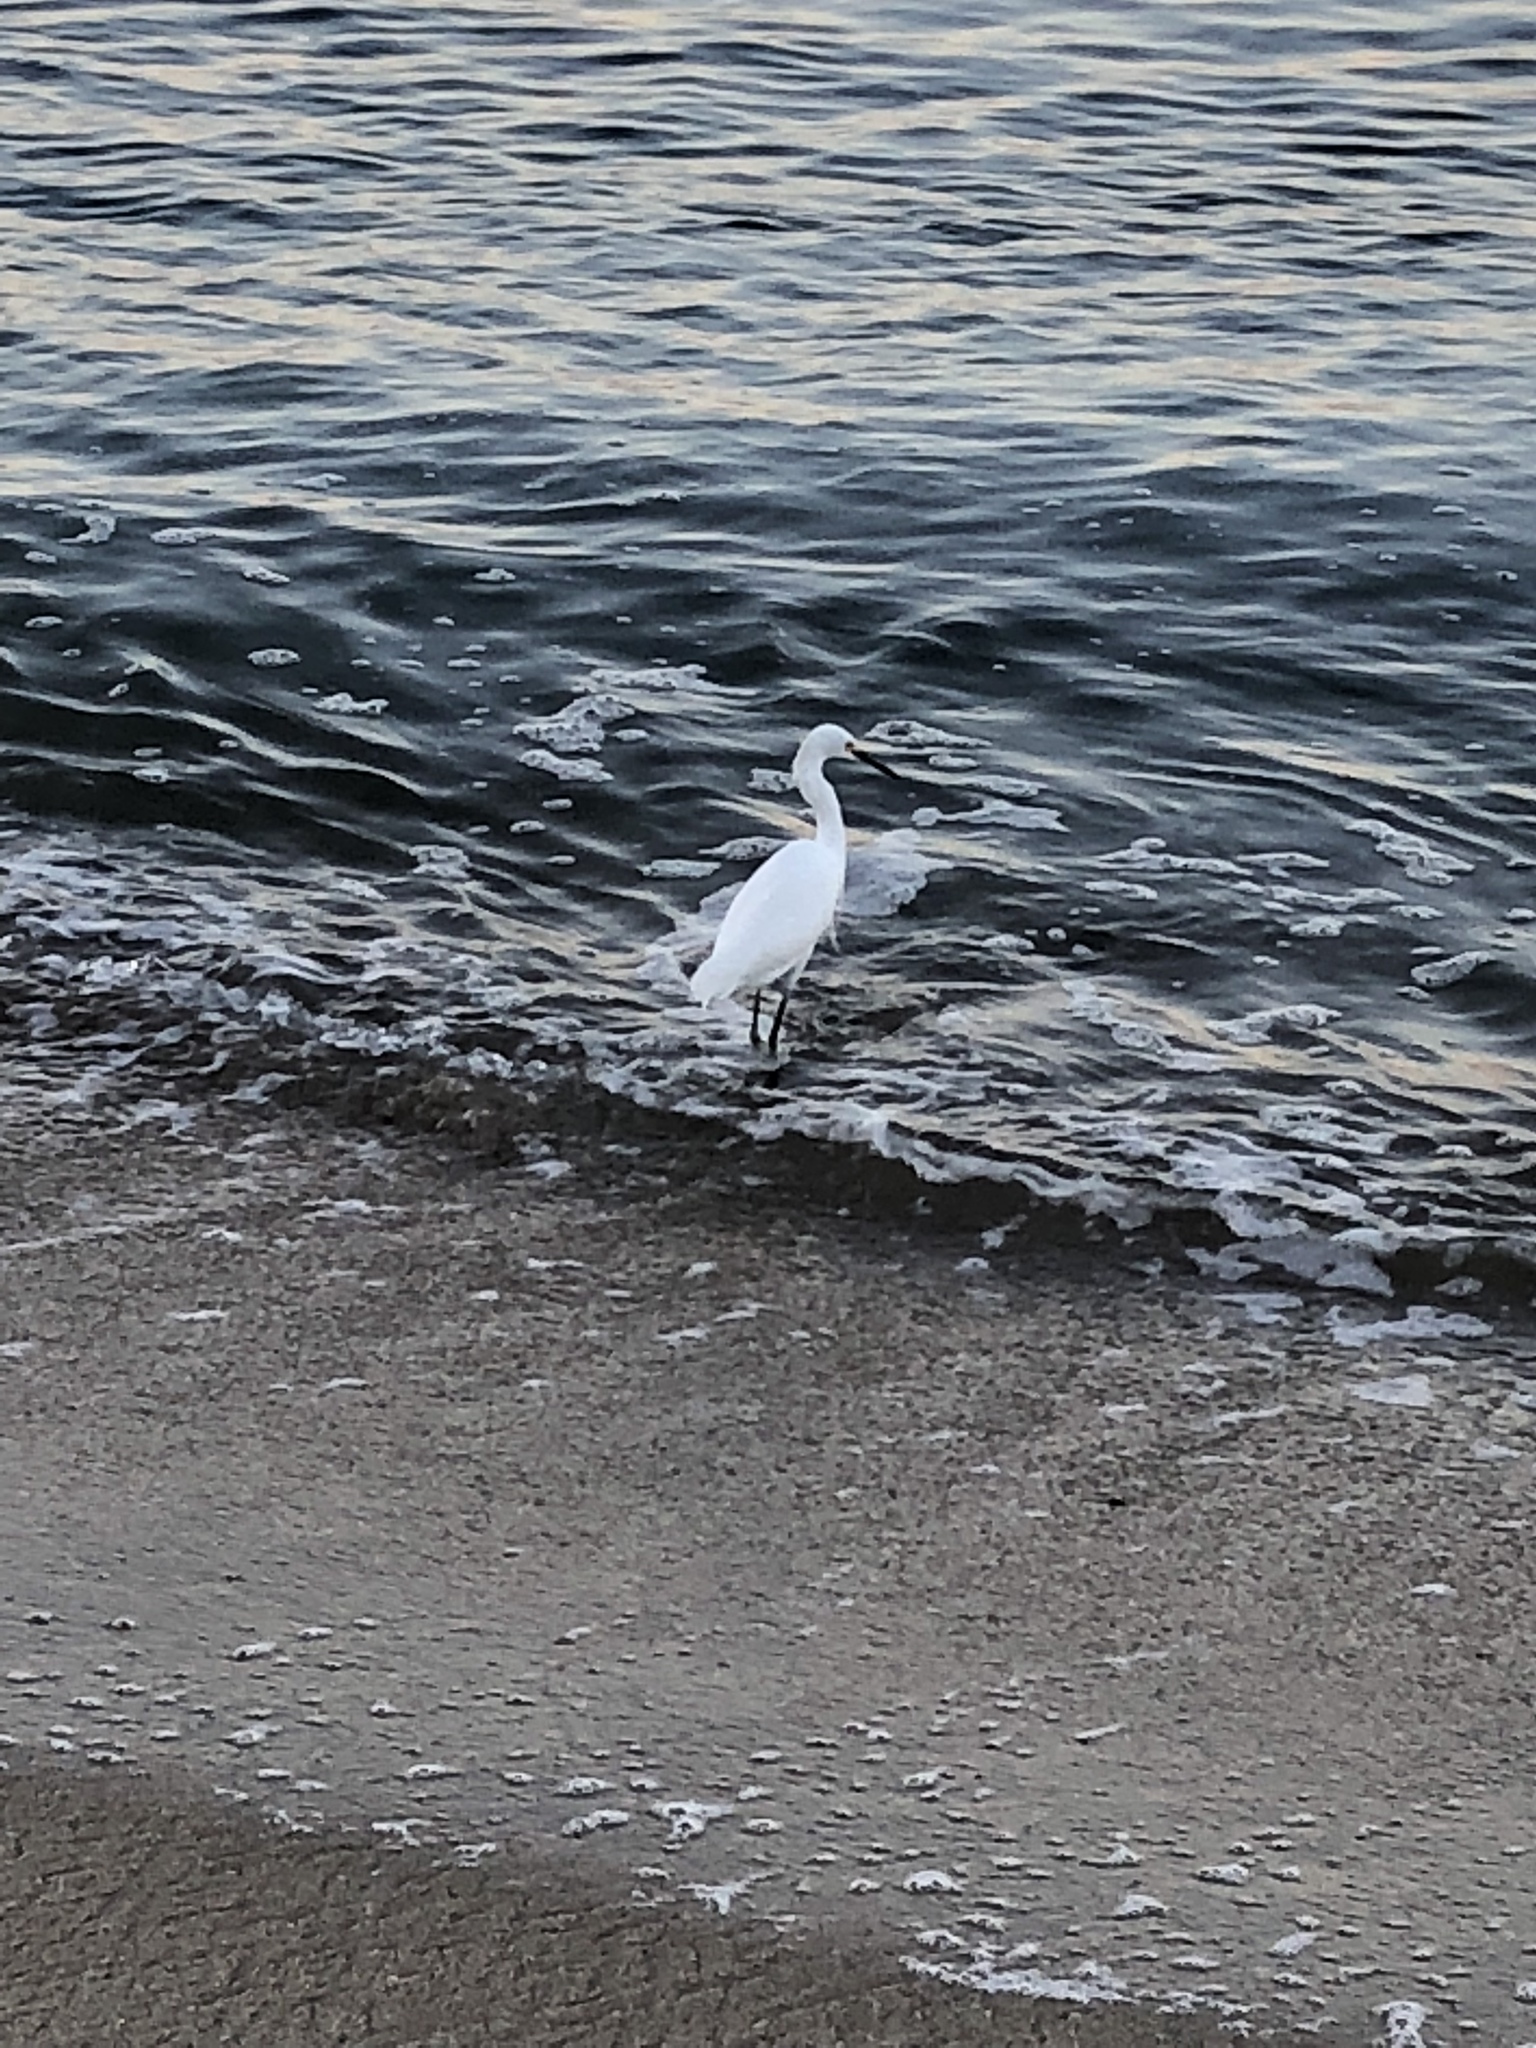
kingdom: Animalia
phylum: Chordata
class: Aves
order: Pelecaniformes
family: Ardeidae
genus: Egretta
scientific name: Egretta thula
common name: Snowy egret
